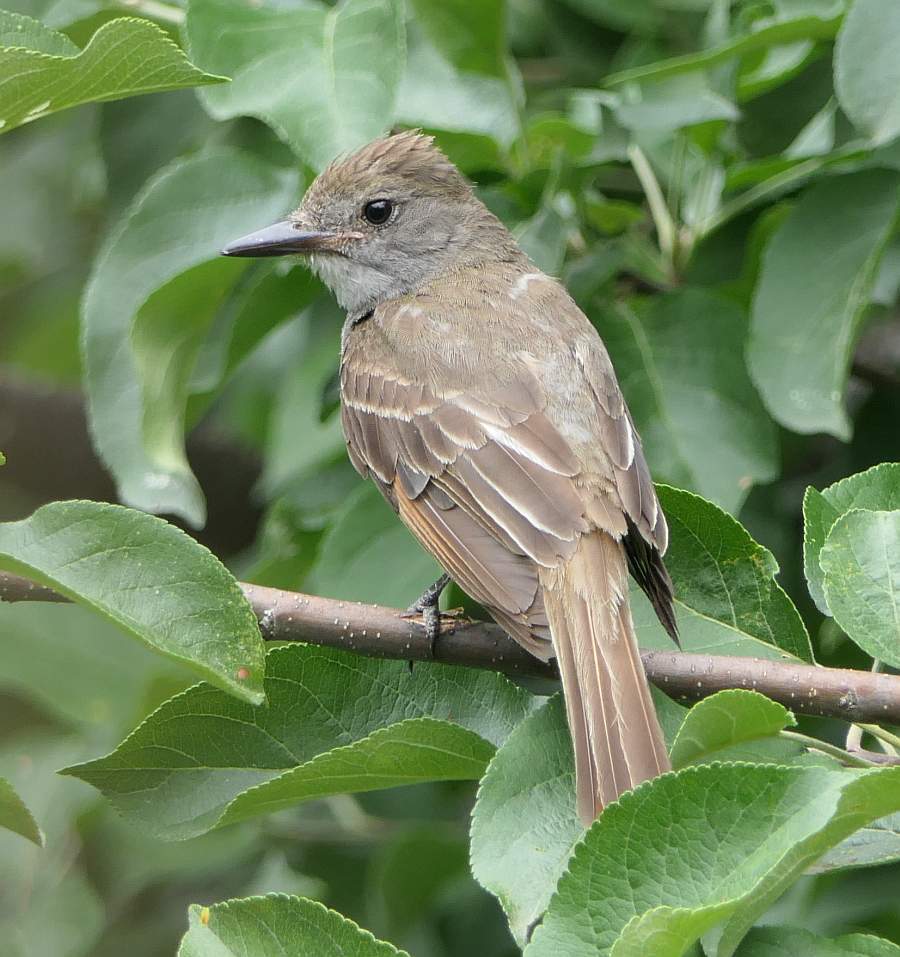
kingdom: Animalia
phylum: Chordata
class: Aves
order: Passeriformes
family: Tyrannidae
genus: Myiarchus
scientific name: Myiarchus crinitus
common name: Great crested flycatcher
